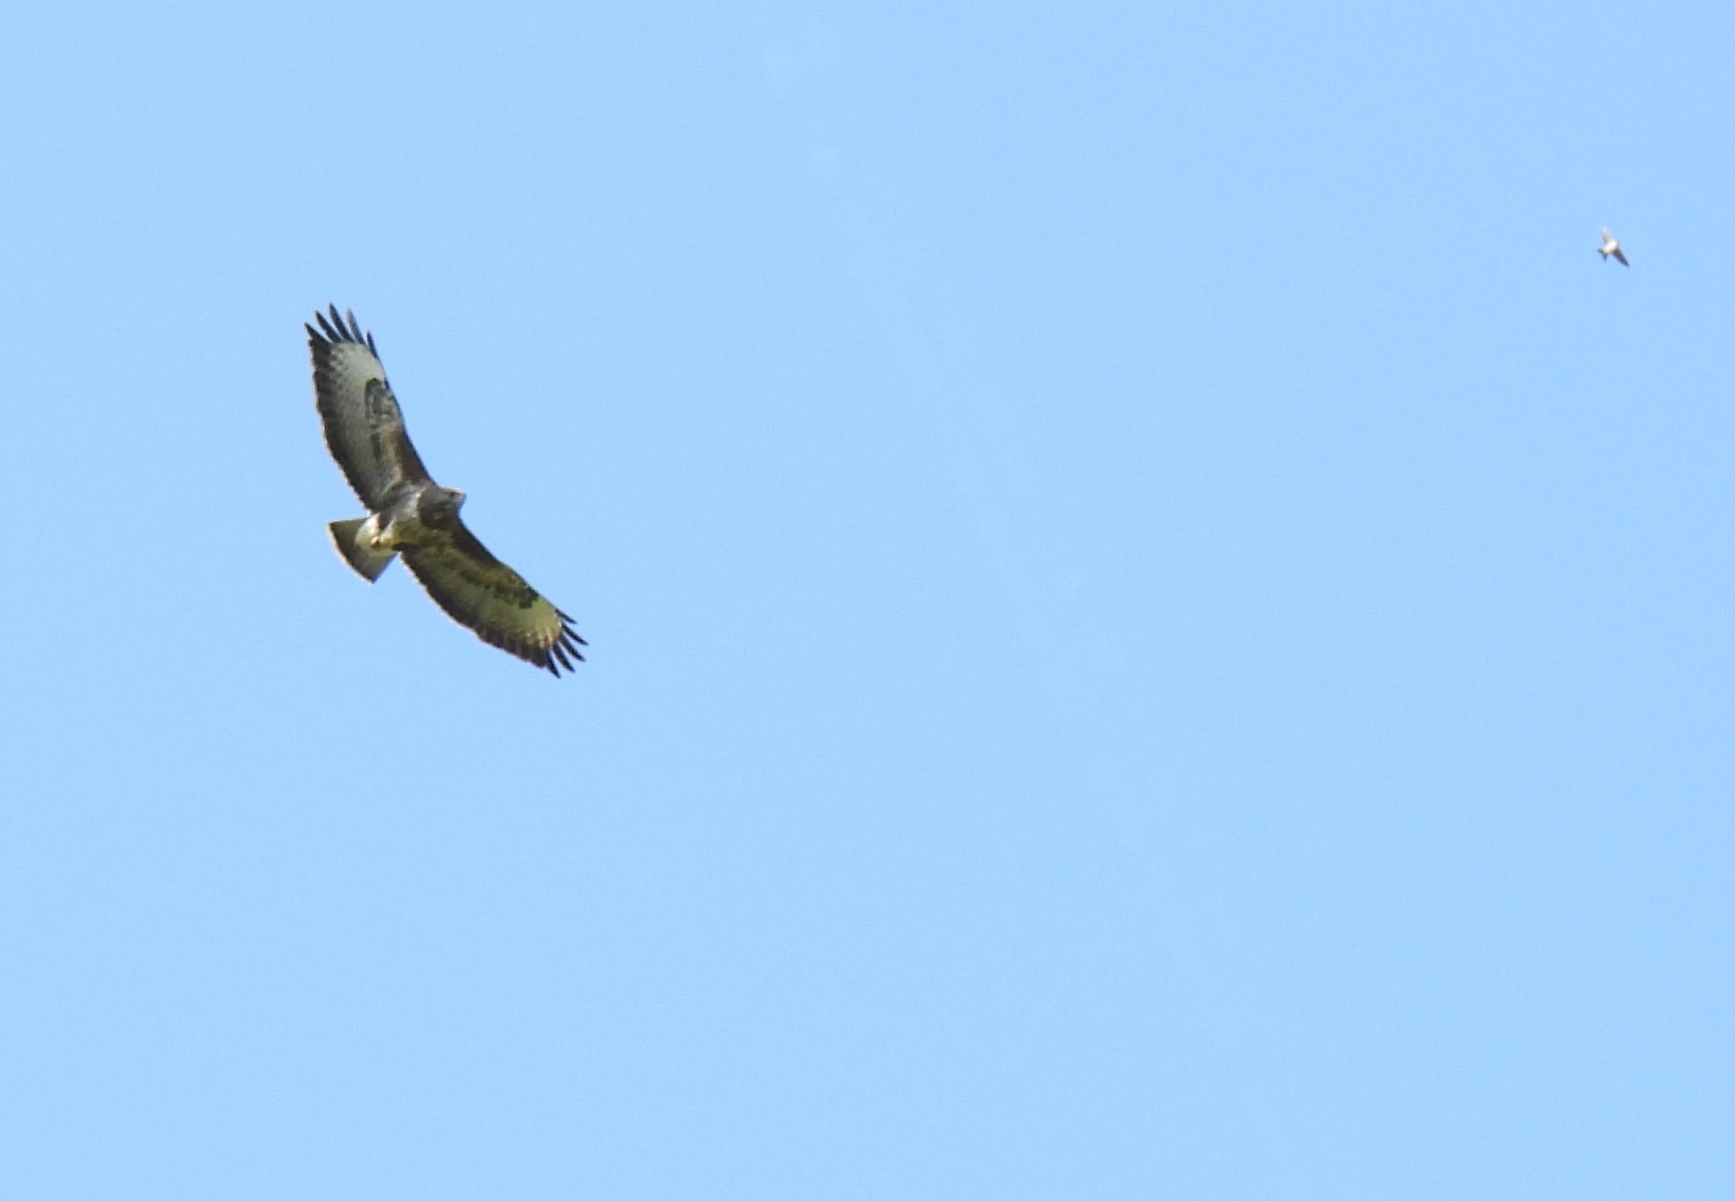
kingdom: Animalia
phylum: Chordata
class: Aves
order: Accipitriformes
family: Accipitridae
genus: Buteo
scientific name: Buteo buteo
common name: Common buzzard
